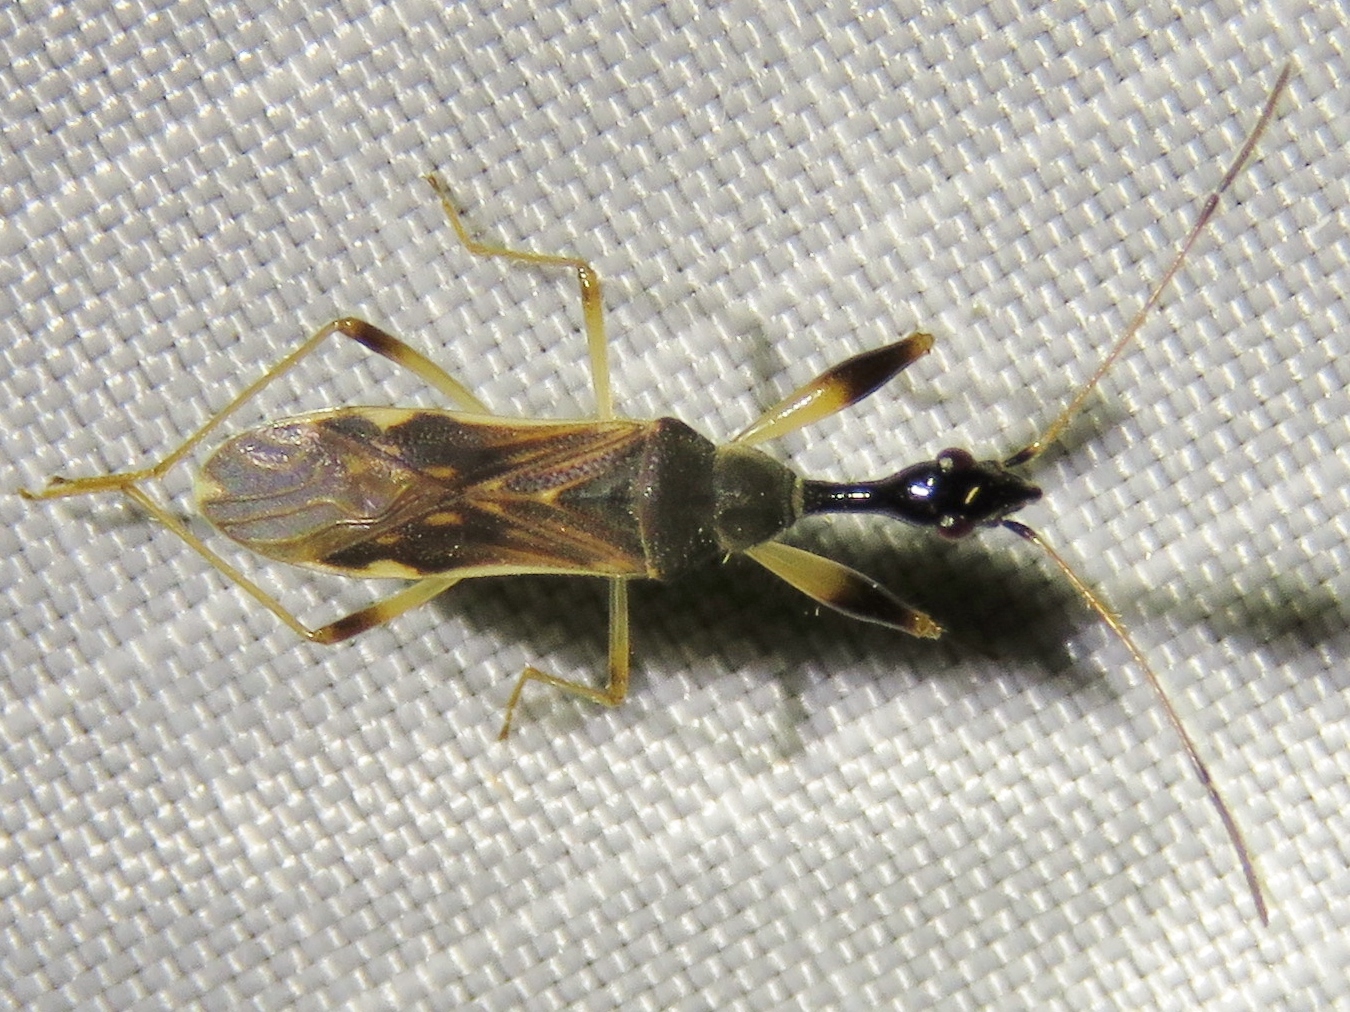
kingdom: Animalia
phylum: Arthropoda
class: Insecta
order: Hemiptera
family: Rhyparochromidae
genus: Myodocha
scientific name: Myodocha serripes
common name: Long-necked seed bug
